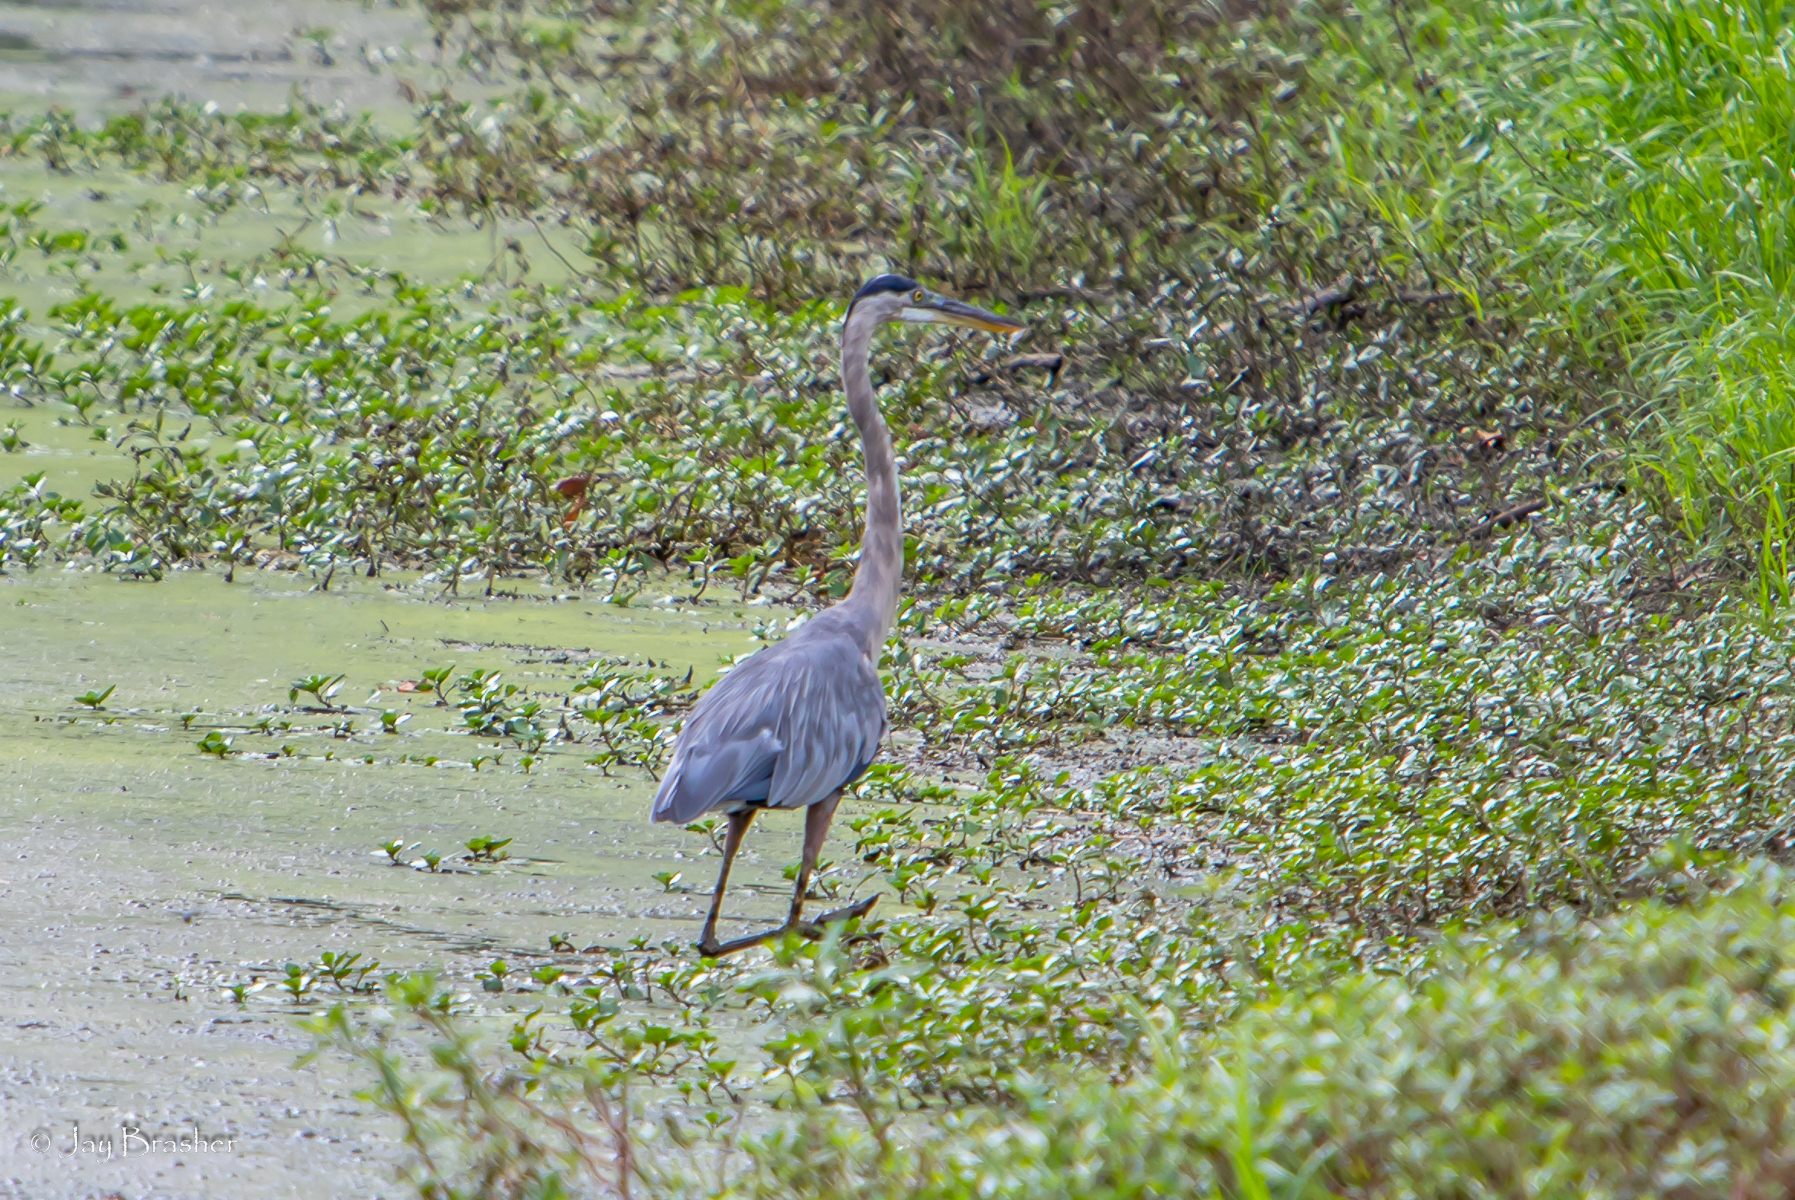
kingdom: Animalia
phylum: Chordata
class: Aves
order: Pelecaniformes
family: Ardeidae
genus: Ardea
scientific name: Ardea herodias
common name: Great blue heron
